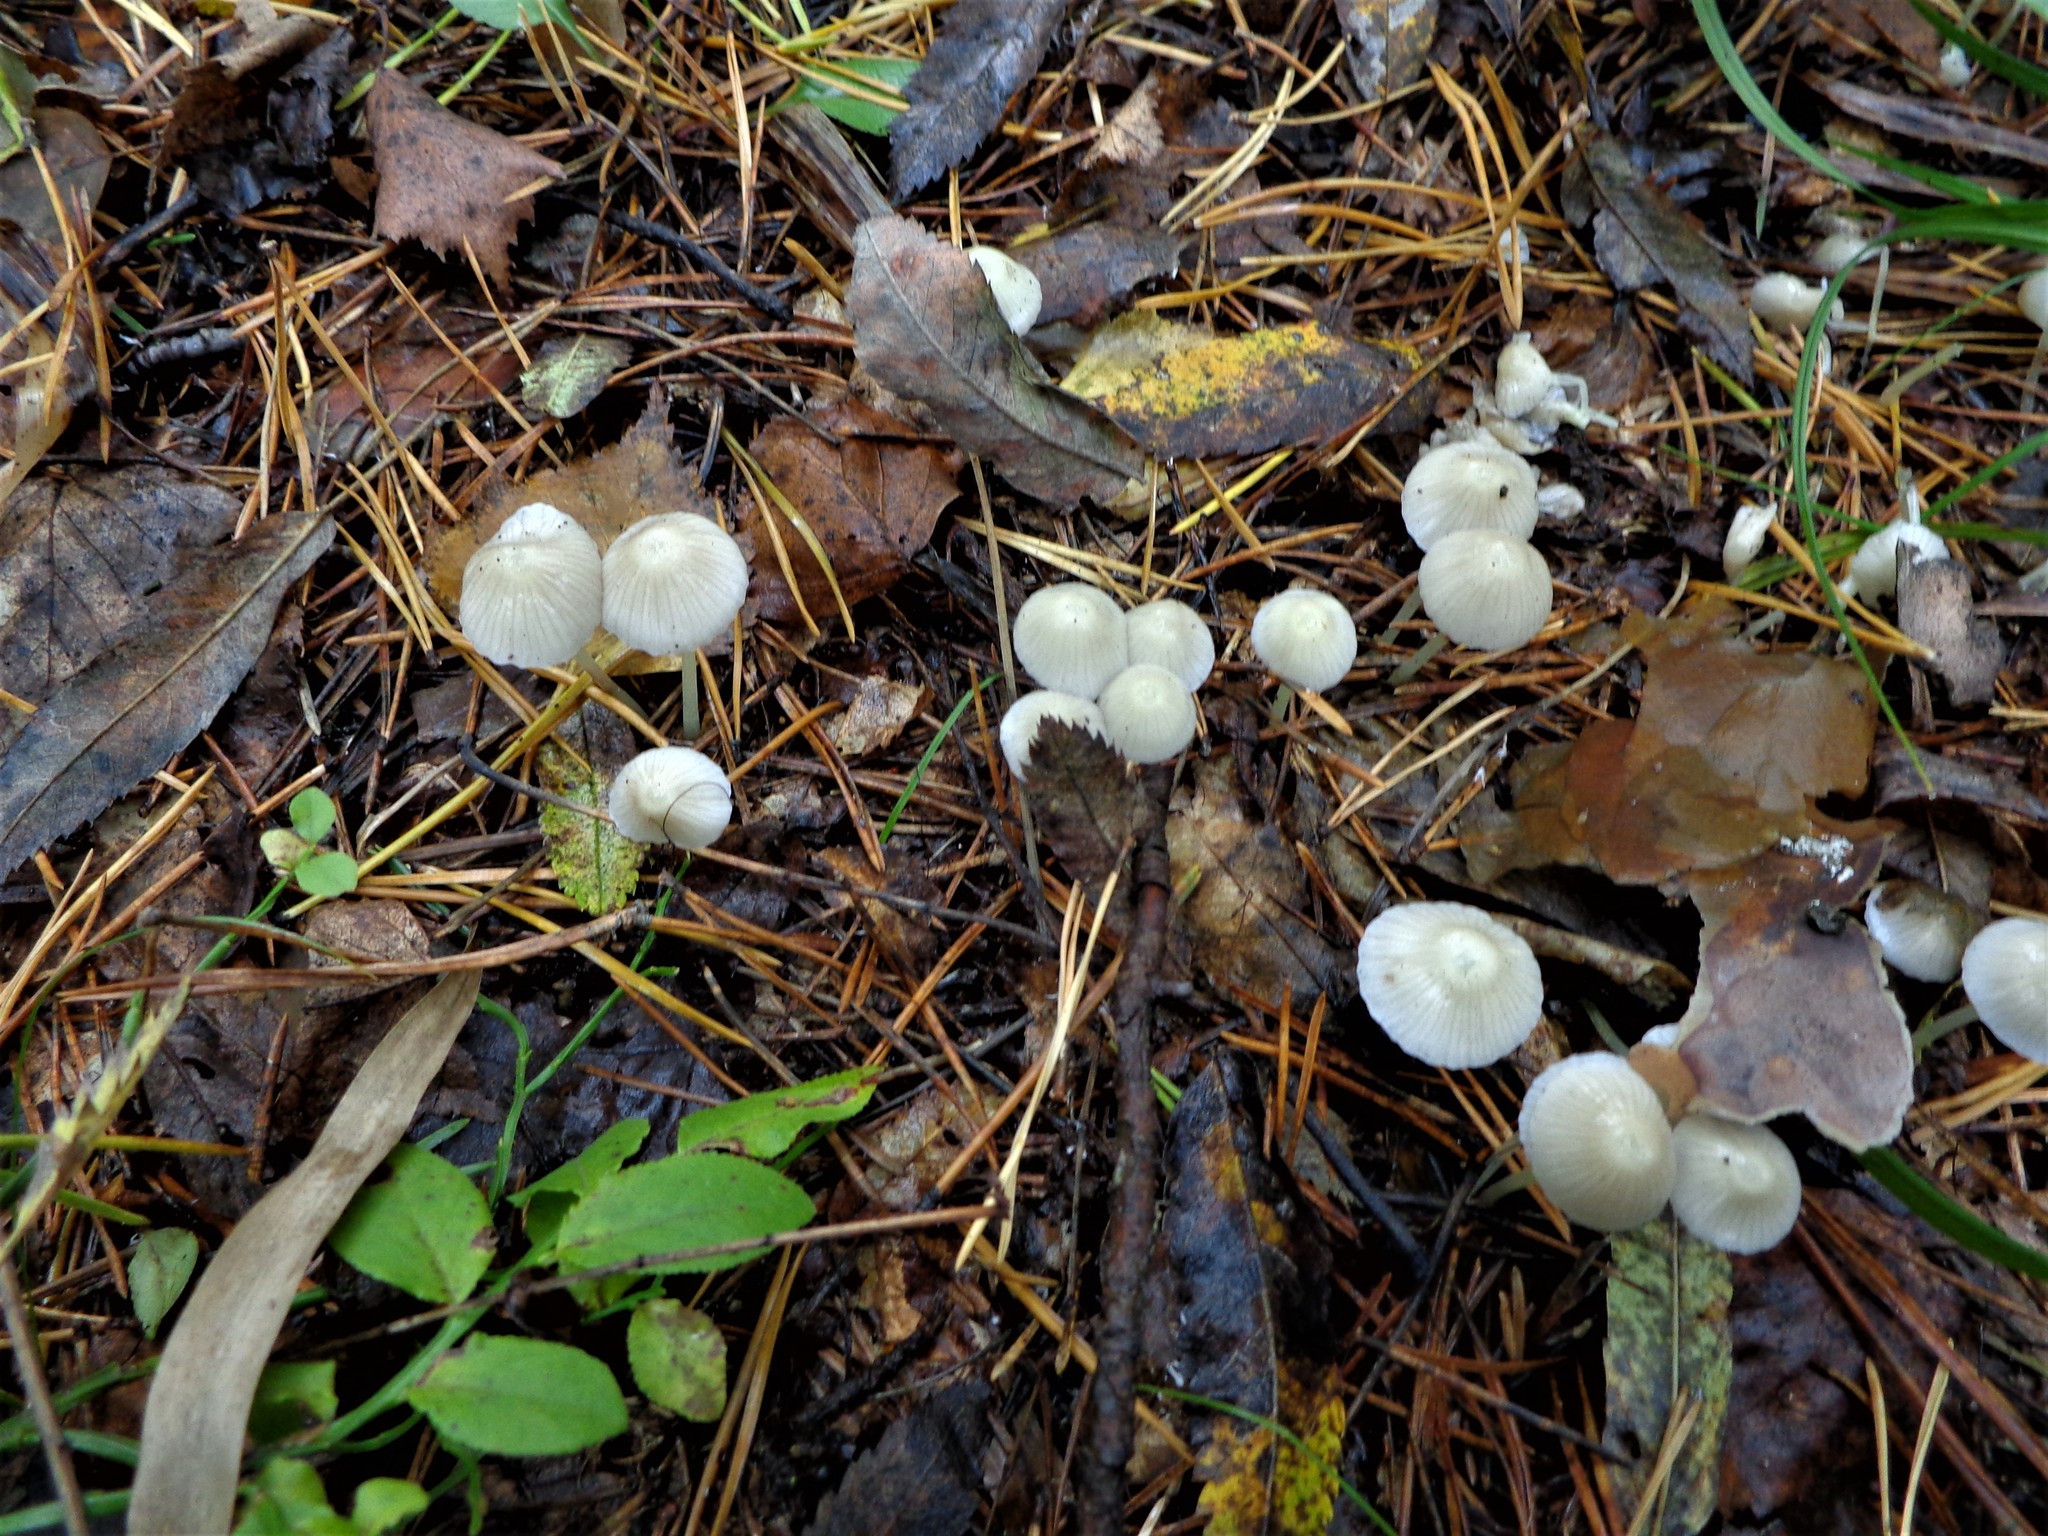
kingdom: Fungi
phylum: Basidiomycota
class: Agaricomycetes
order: Agaricales
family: Mycenaceae
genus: Mycena
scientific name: Mycena epipterygia
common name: Yellowleg bonnet
